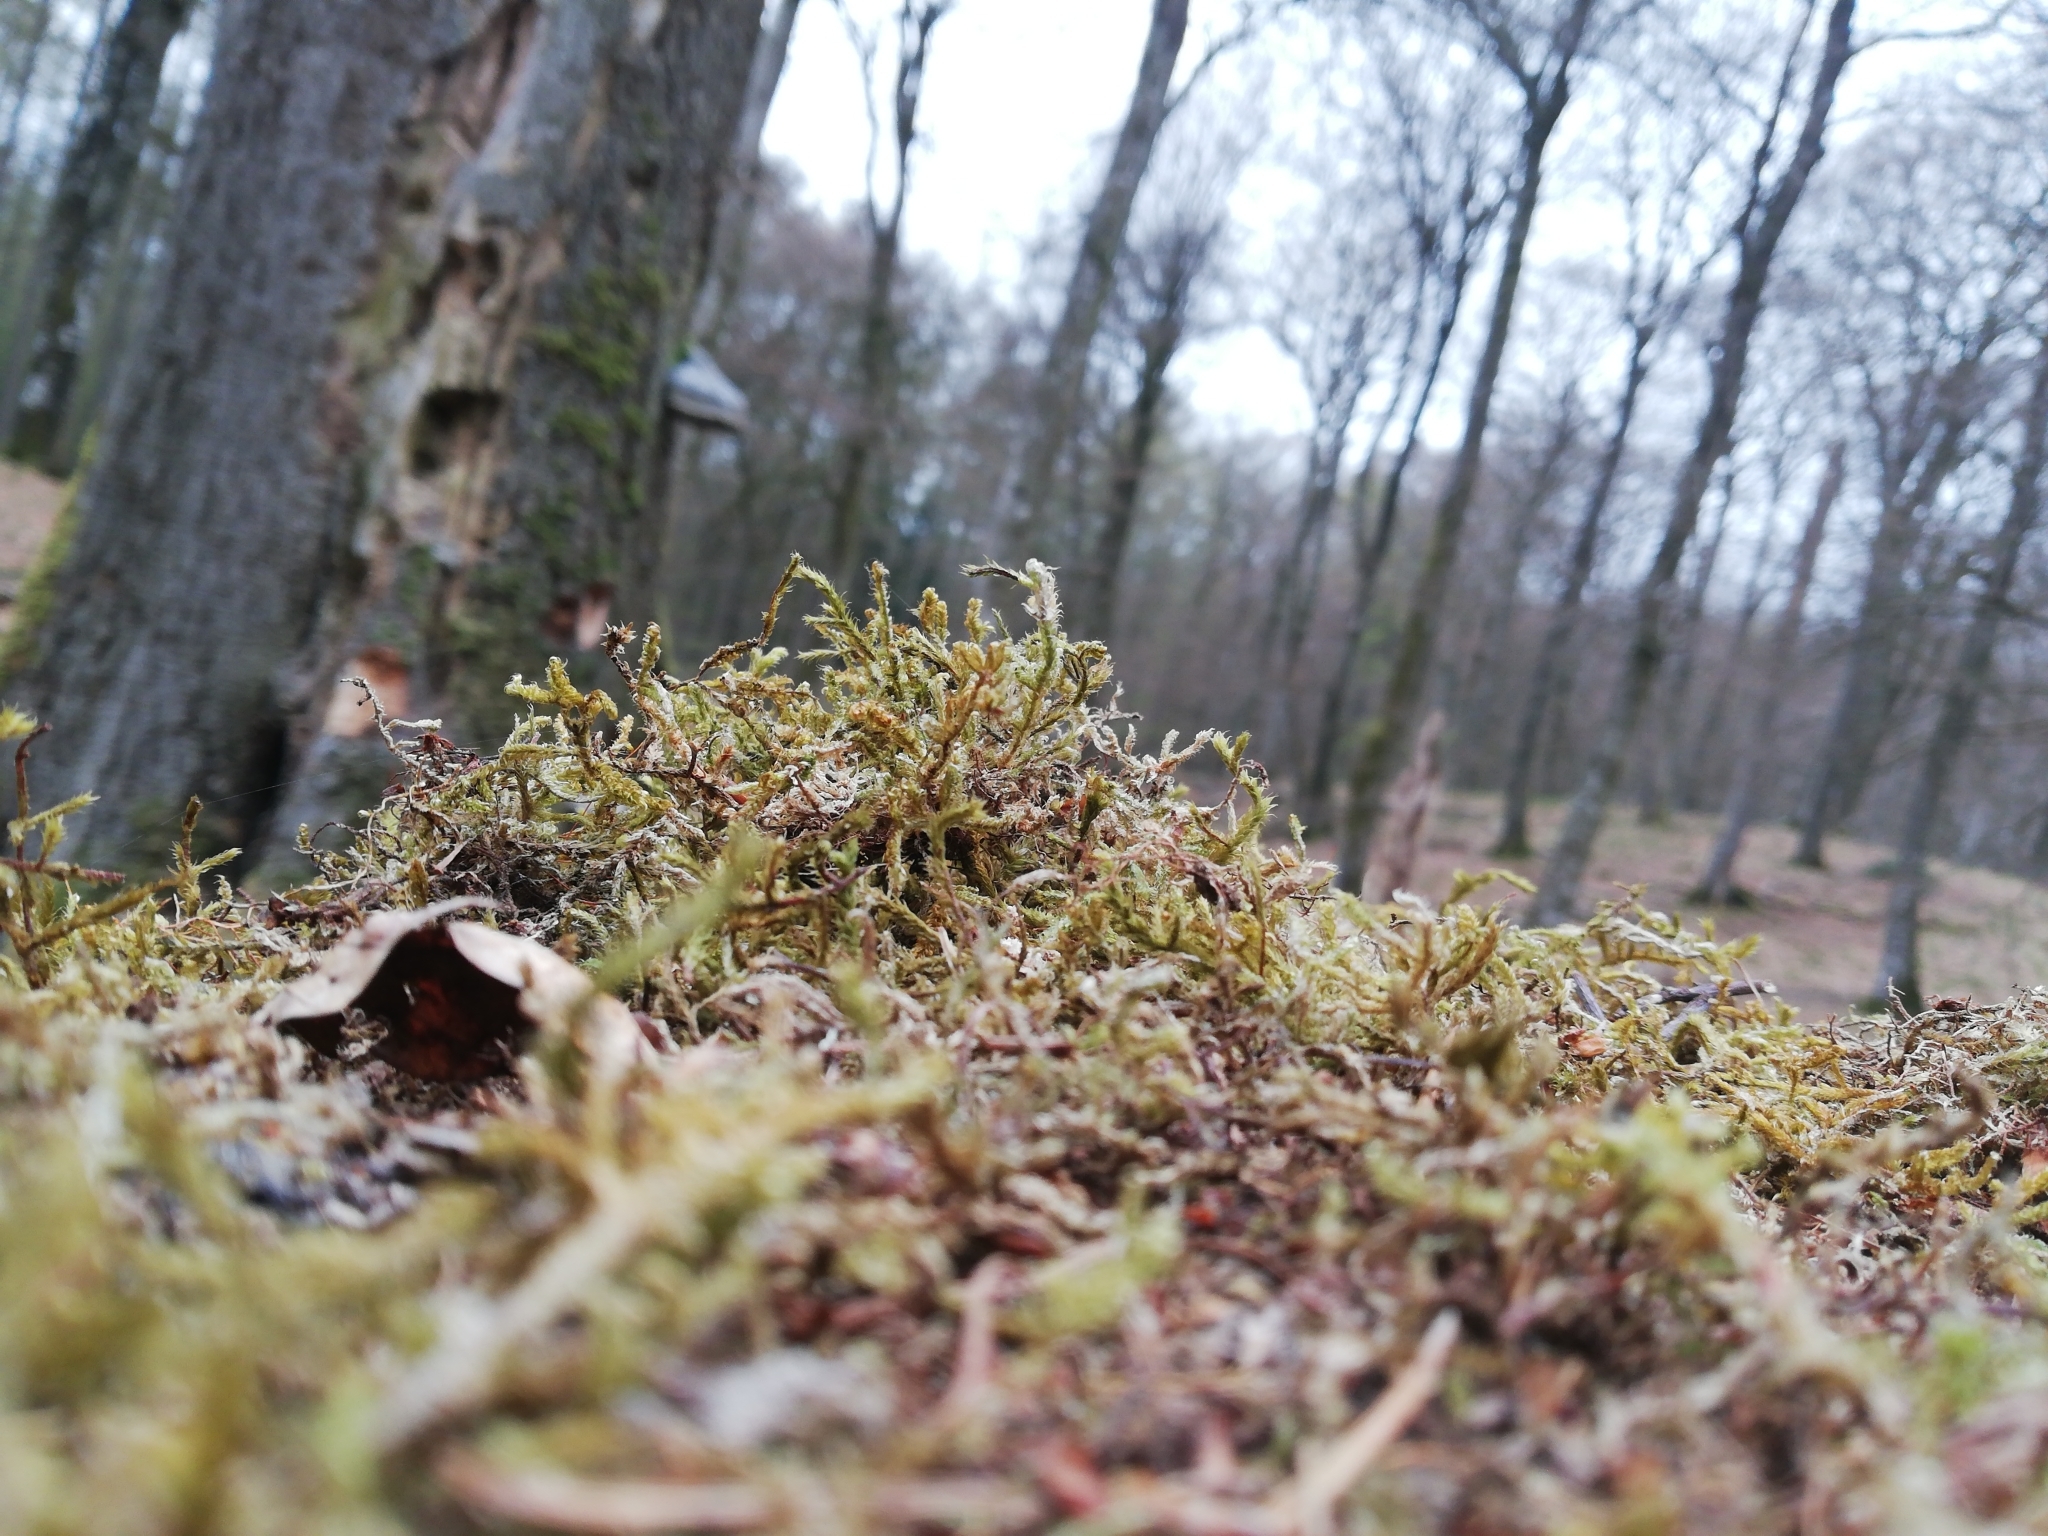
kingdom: Plantae
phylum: Bryophyta
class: Bryopsida
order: Hypnales
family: Antitrichiaceae
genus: Antitrichia
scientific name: Antitrichia curtipendula
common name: Pendulous wing-moss
